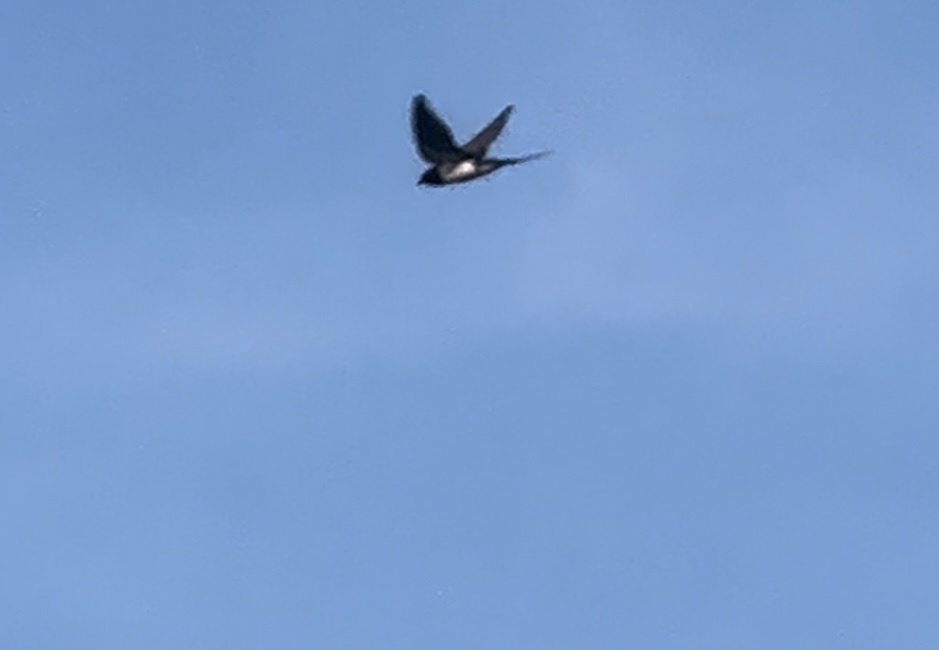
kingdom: Animalia
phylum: Chordata
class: Aves
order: Passeriformes
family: Hirundinidae
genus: Hirundo
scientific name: Hirundo rustica
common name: Barn swallow
